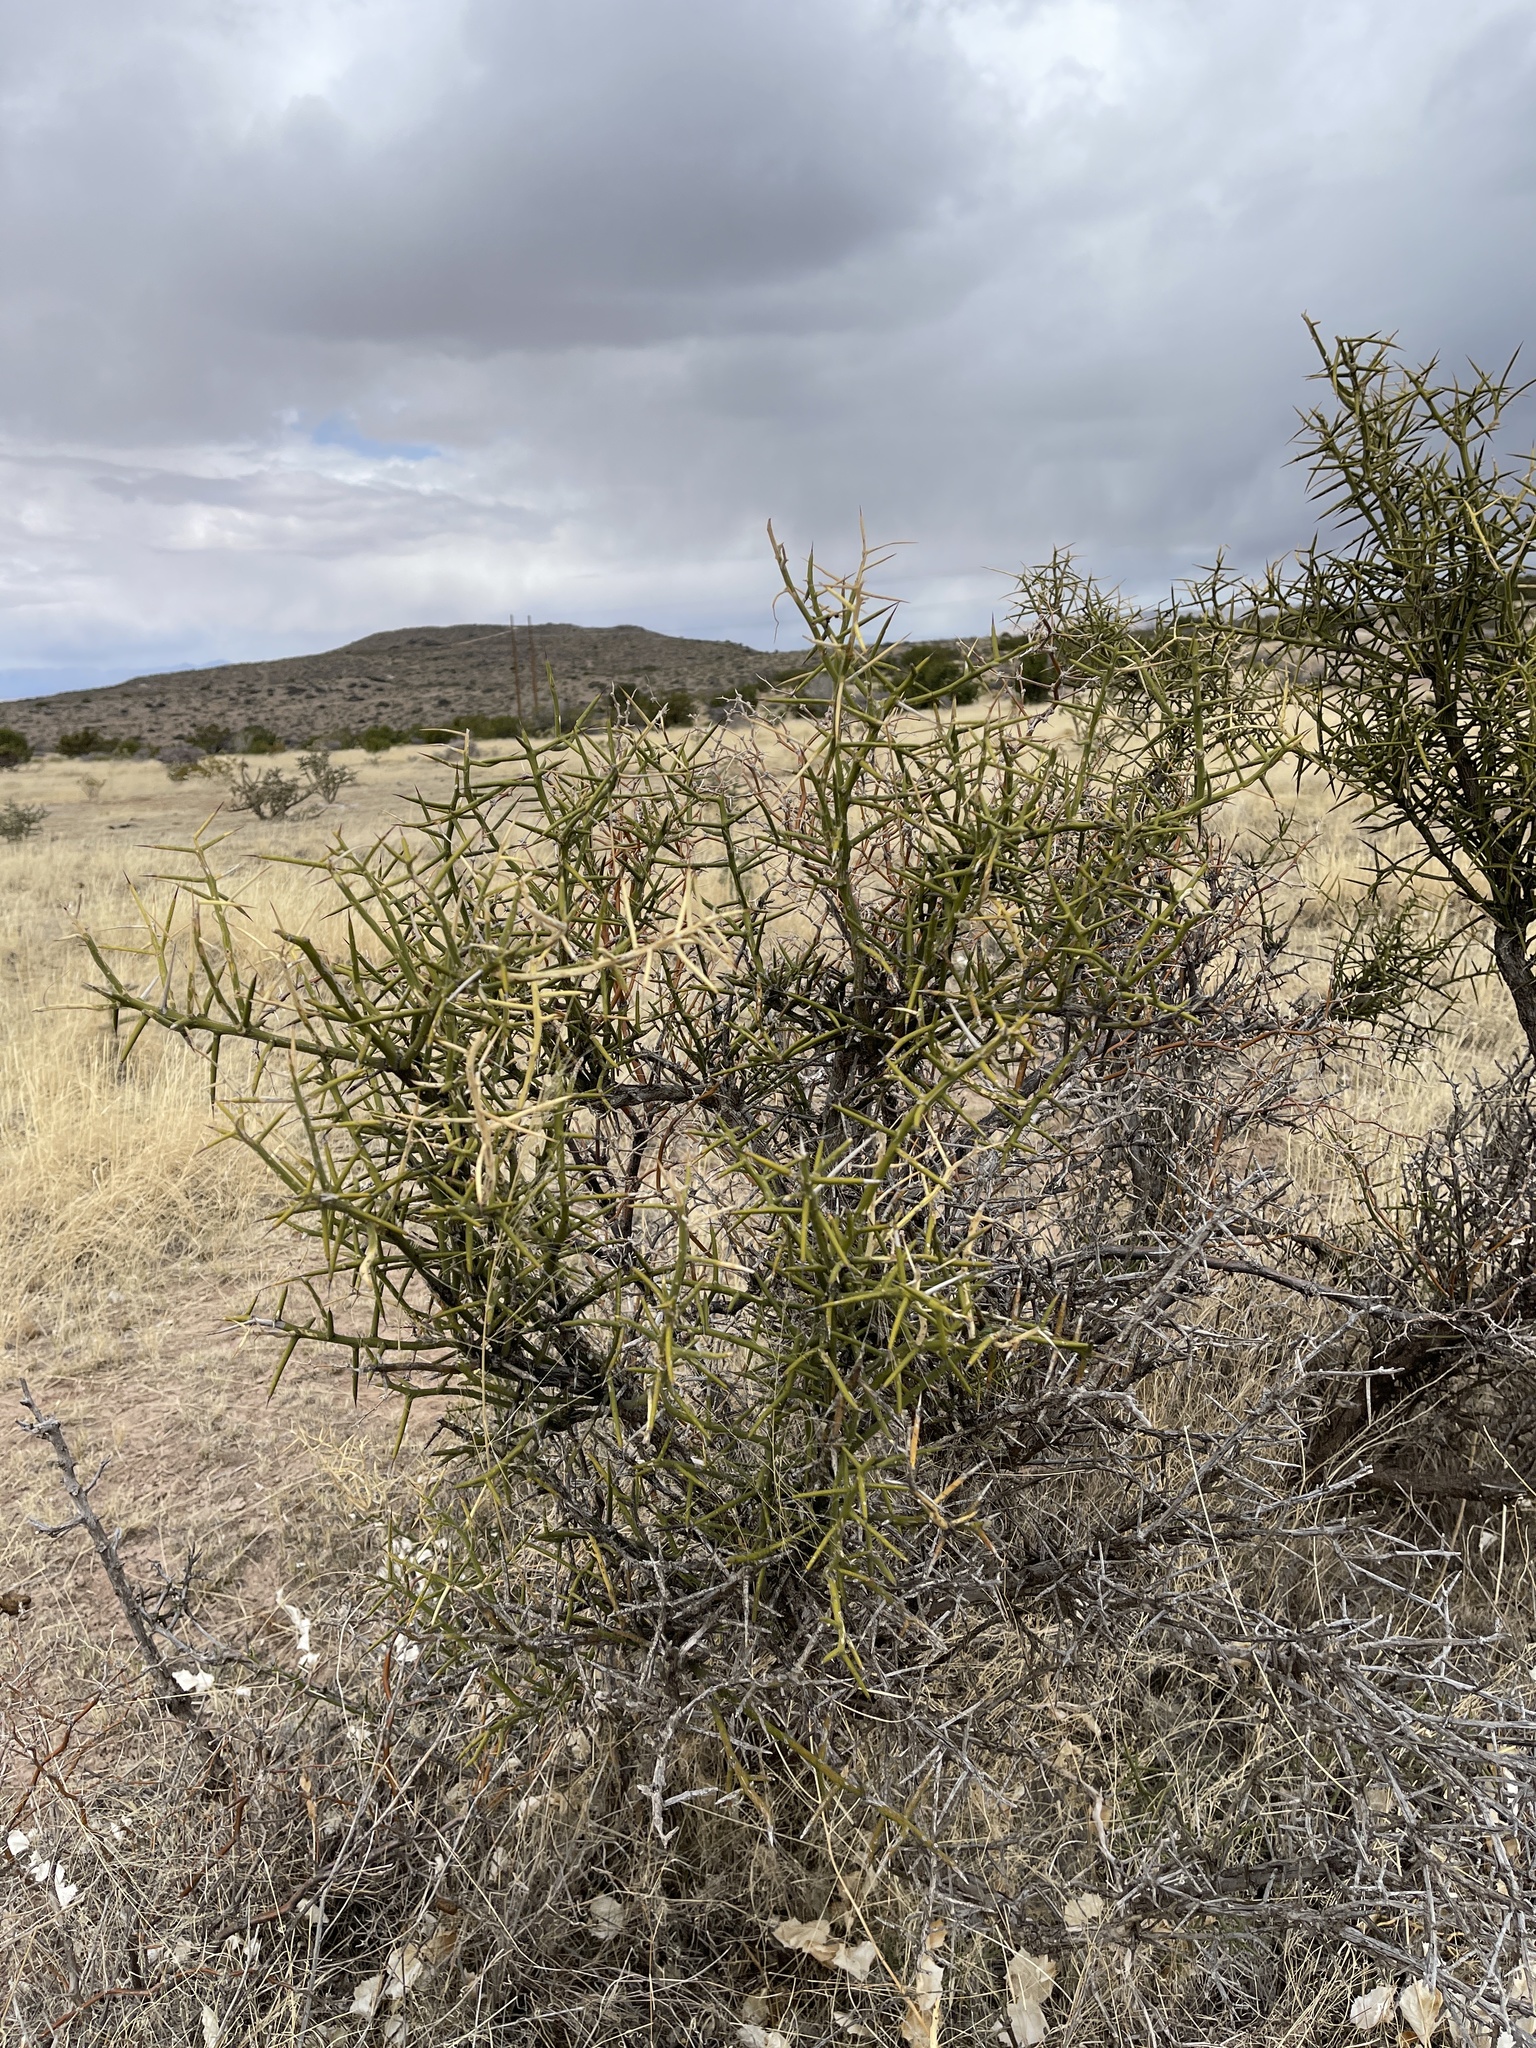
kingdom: Plantae
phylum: Tracheophyta
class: Magnoliopsida
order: Brassicales
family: Koeberliniaceae
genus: Koeberlinia
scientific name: Koeberlinia spinosa
